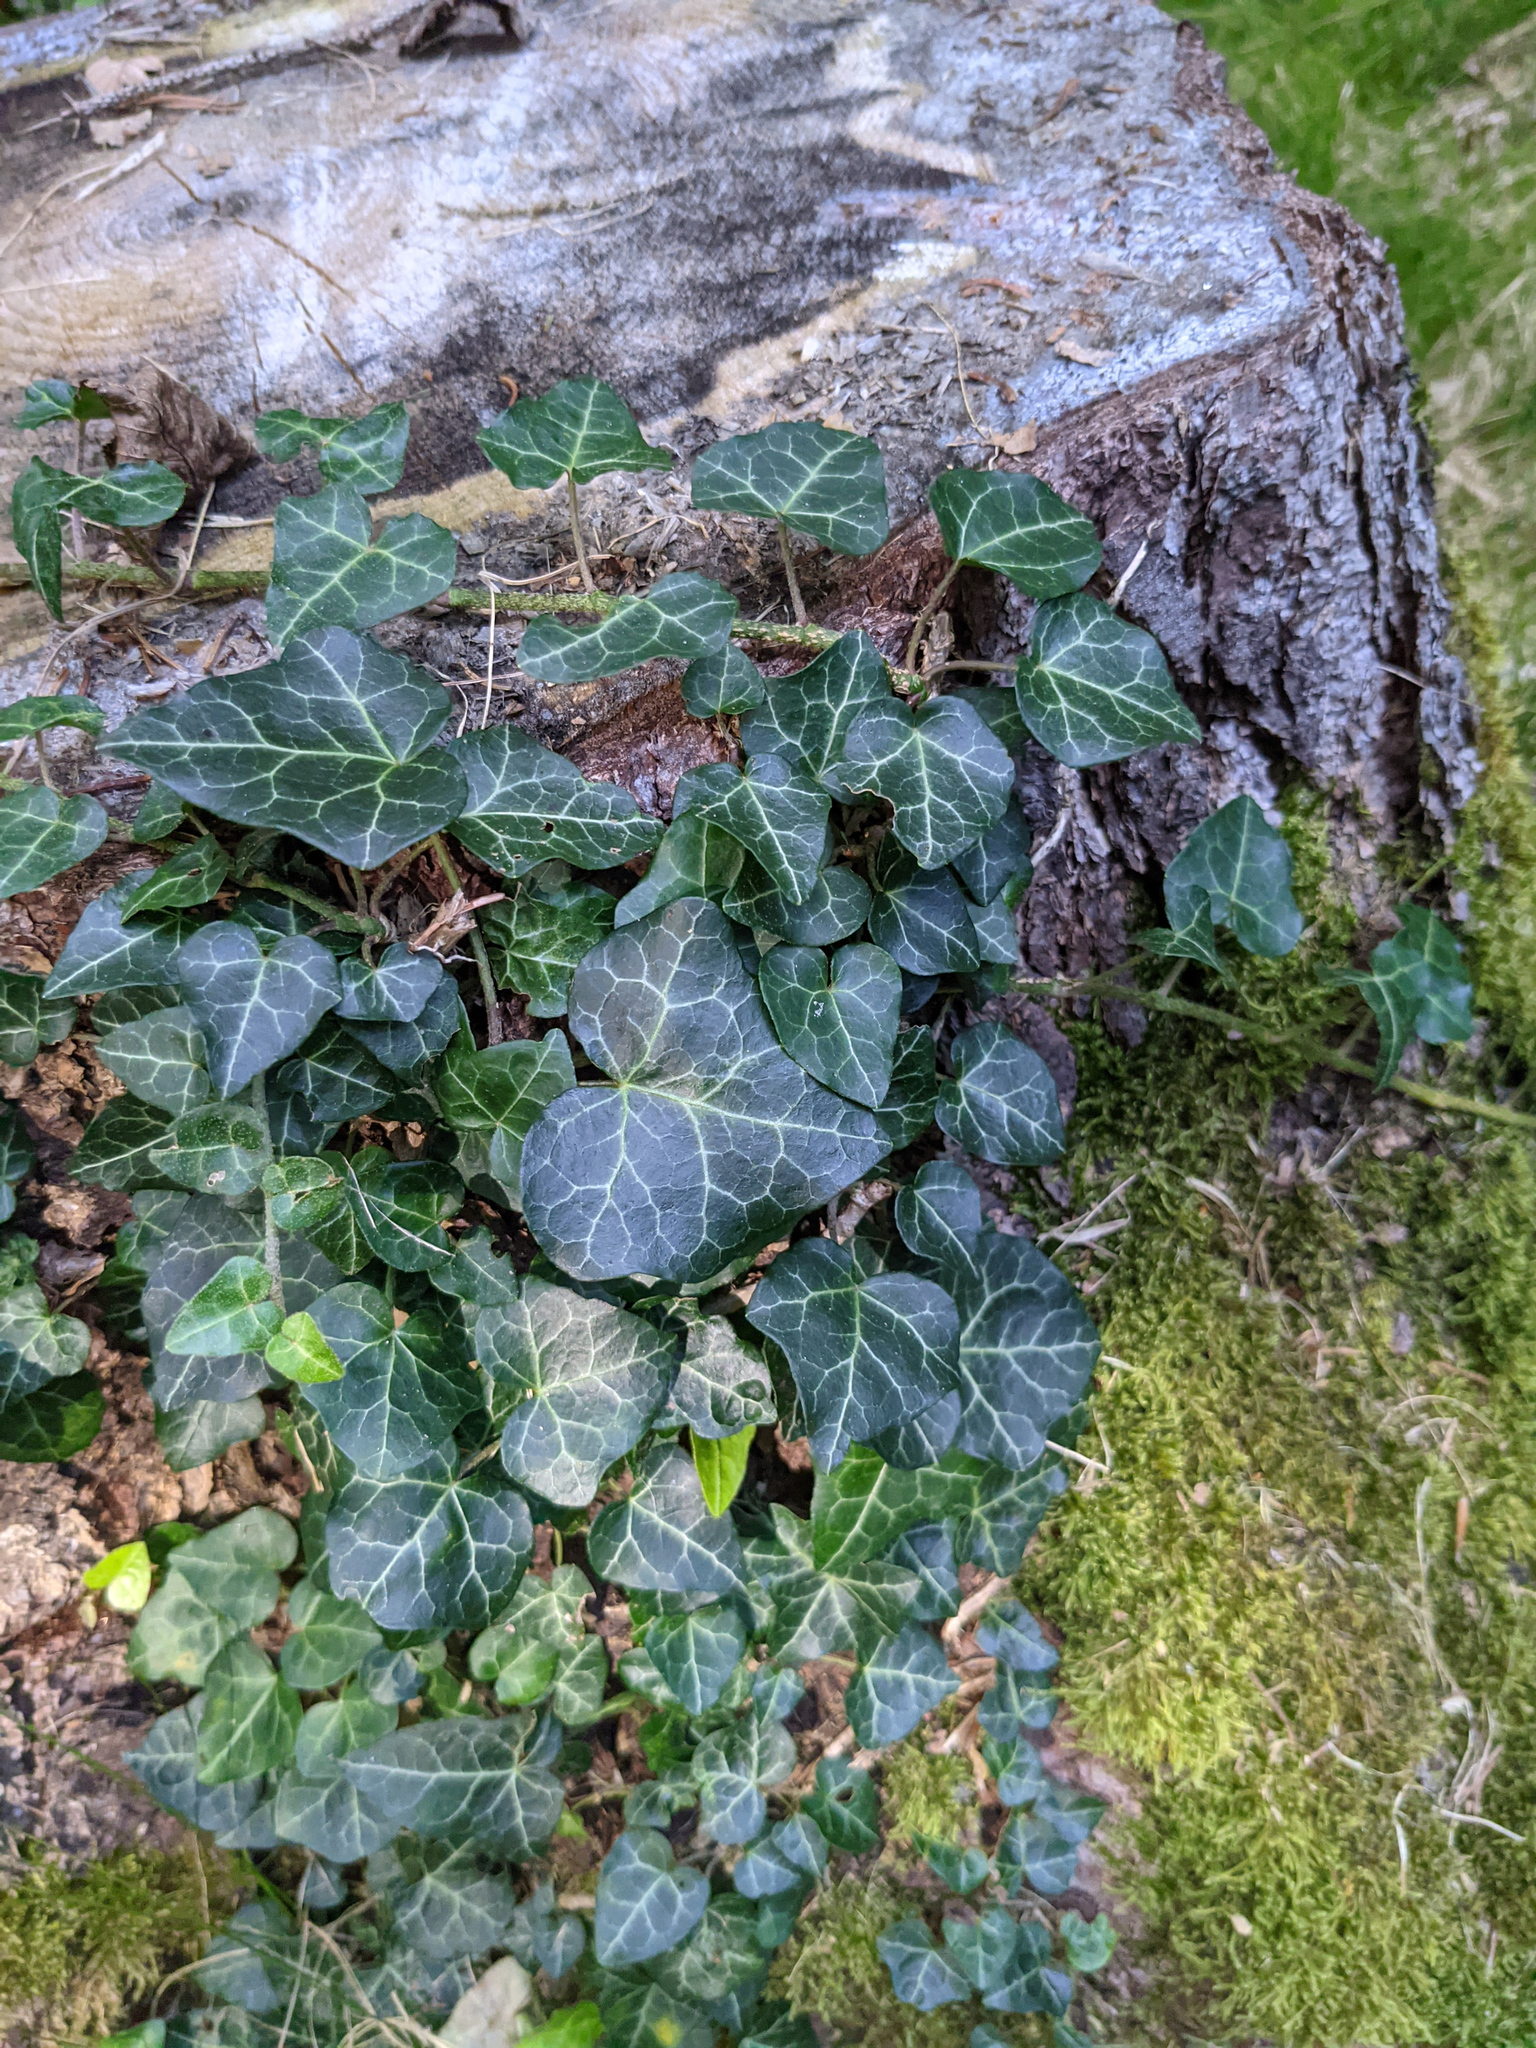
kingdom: Plantae
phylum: Tracheophyta
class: Magnoliopsida
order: Apiales
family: Araliaceae
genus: Hedera
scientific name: Hedera helix
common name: Ivy
